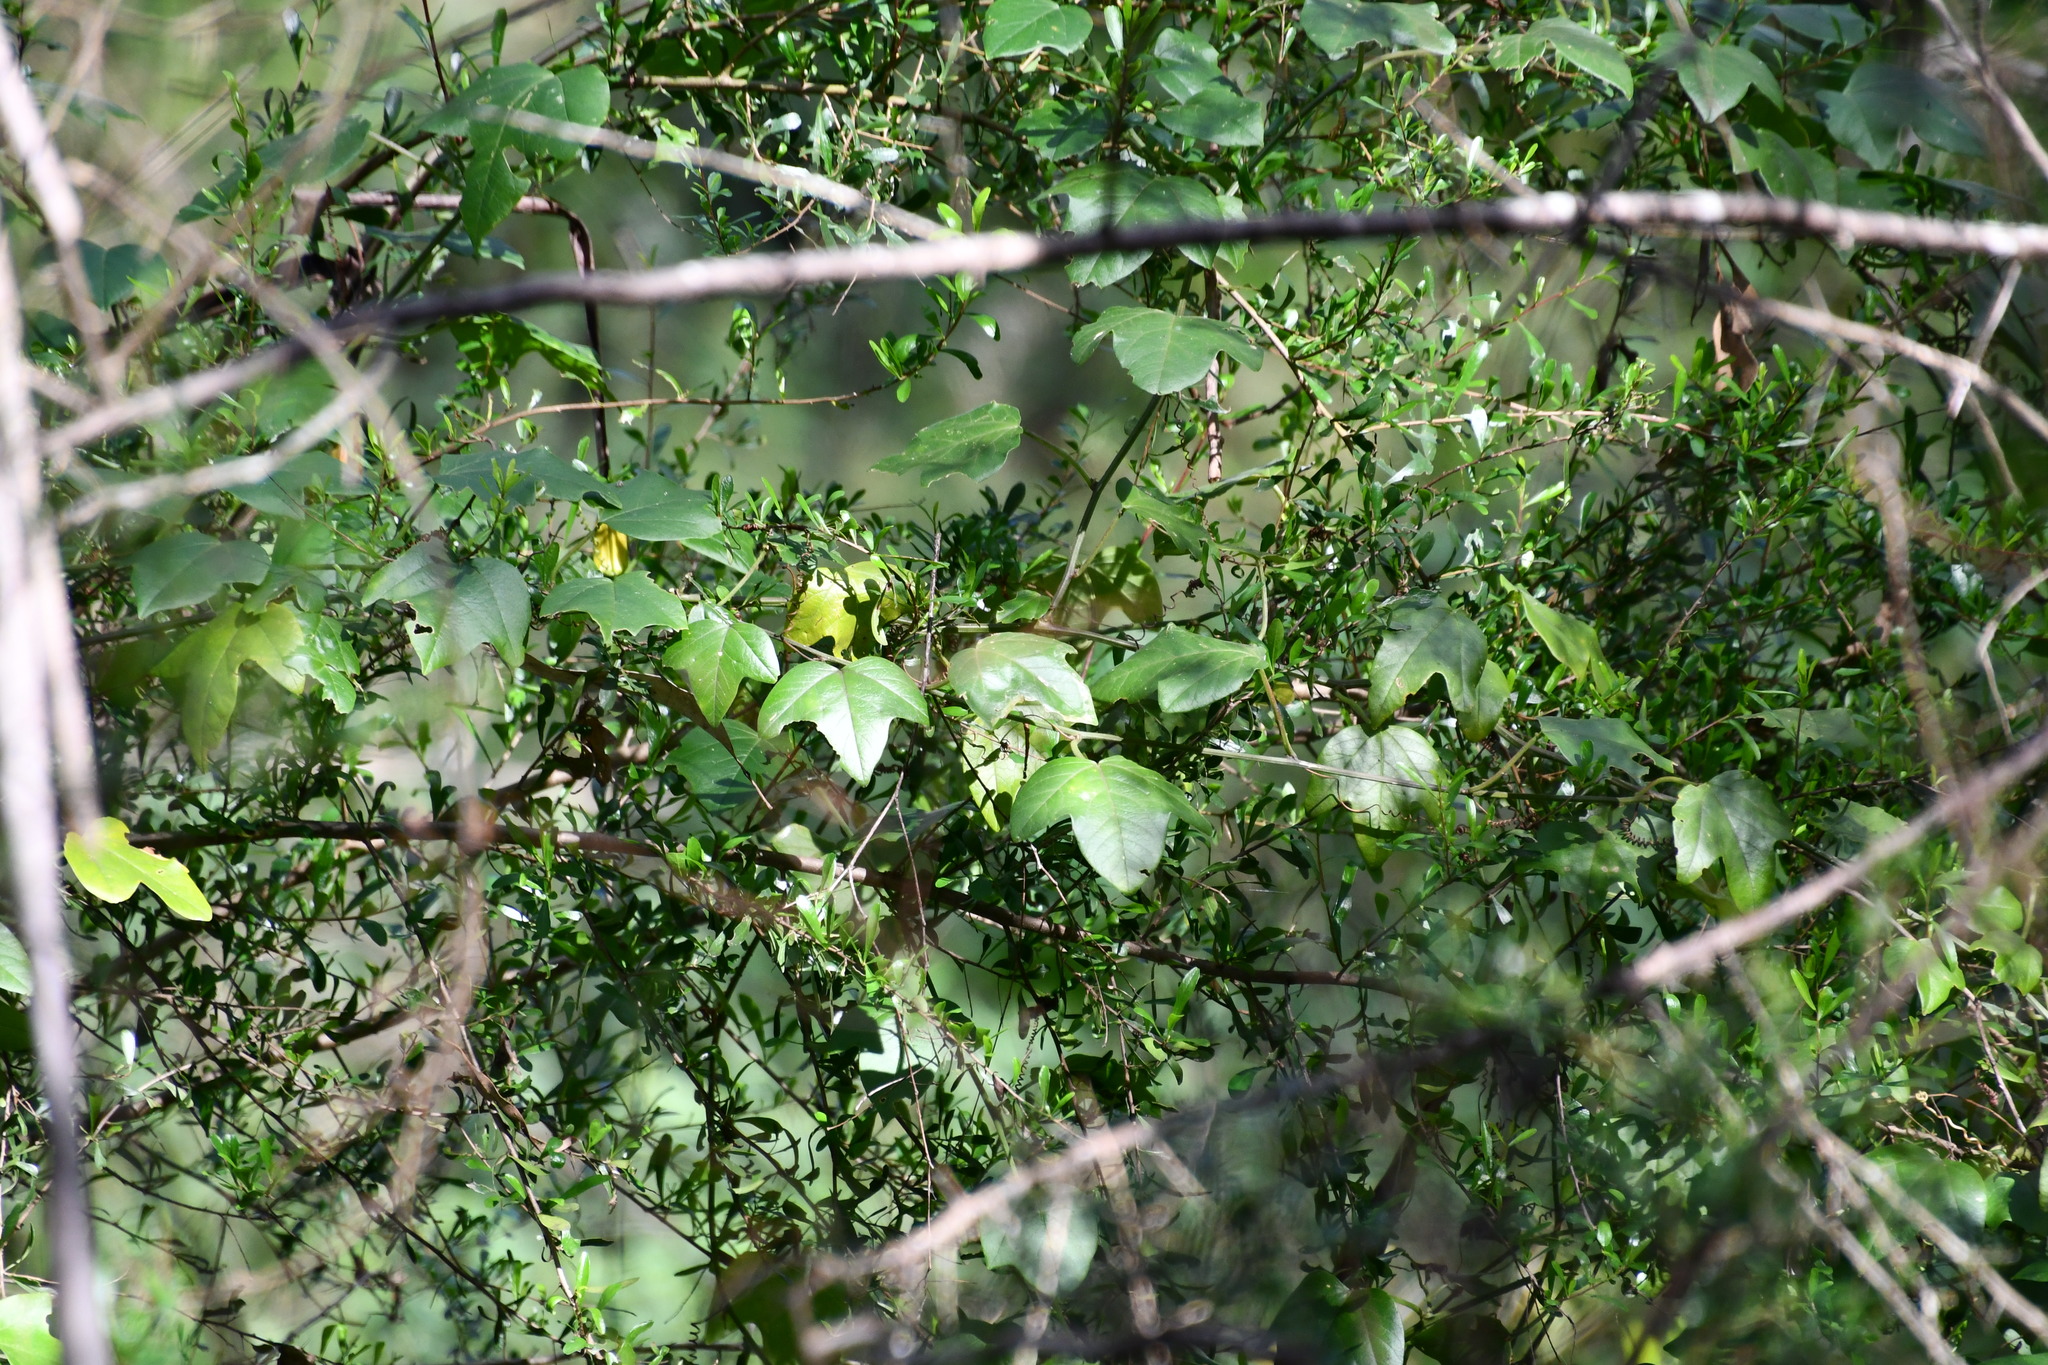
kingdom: Plantae
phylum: Tracheophyta
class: Magnoliopsida
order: Malpighiales
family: Passifloraceae
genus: Passiflora
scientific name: Passiflora herbertiana
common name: Yellow passionflower
